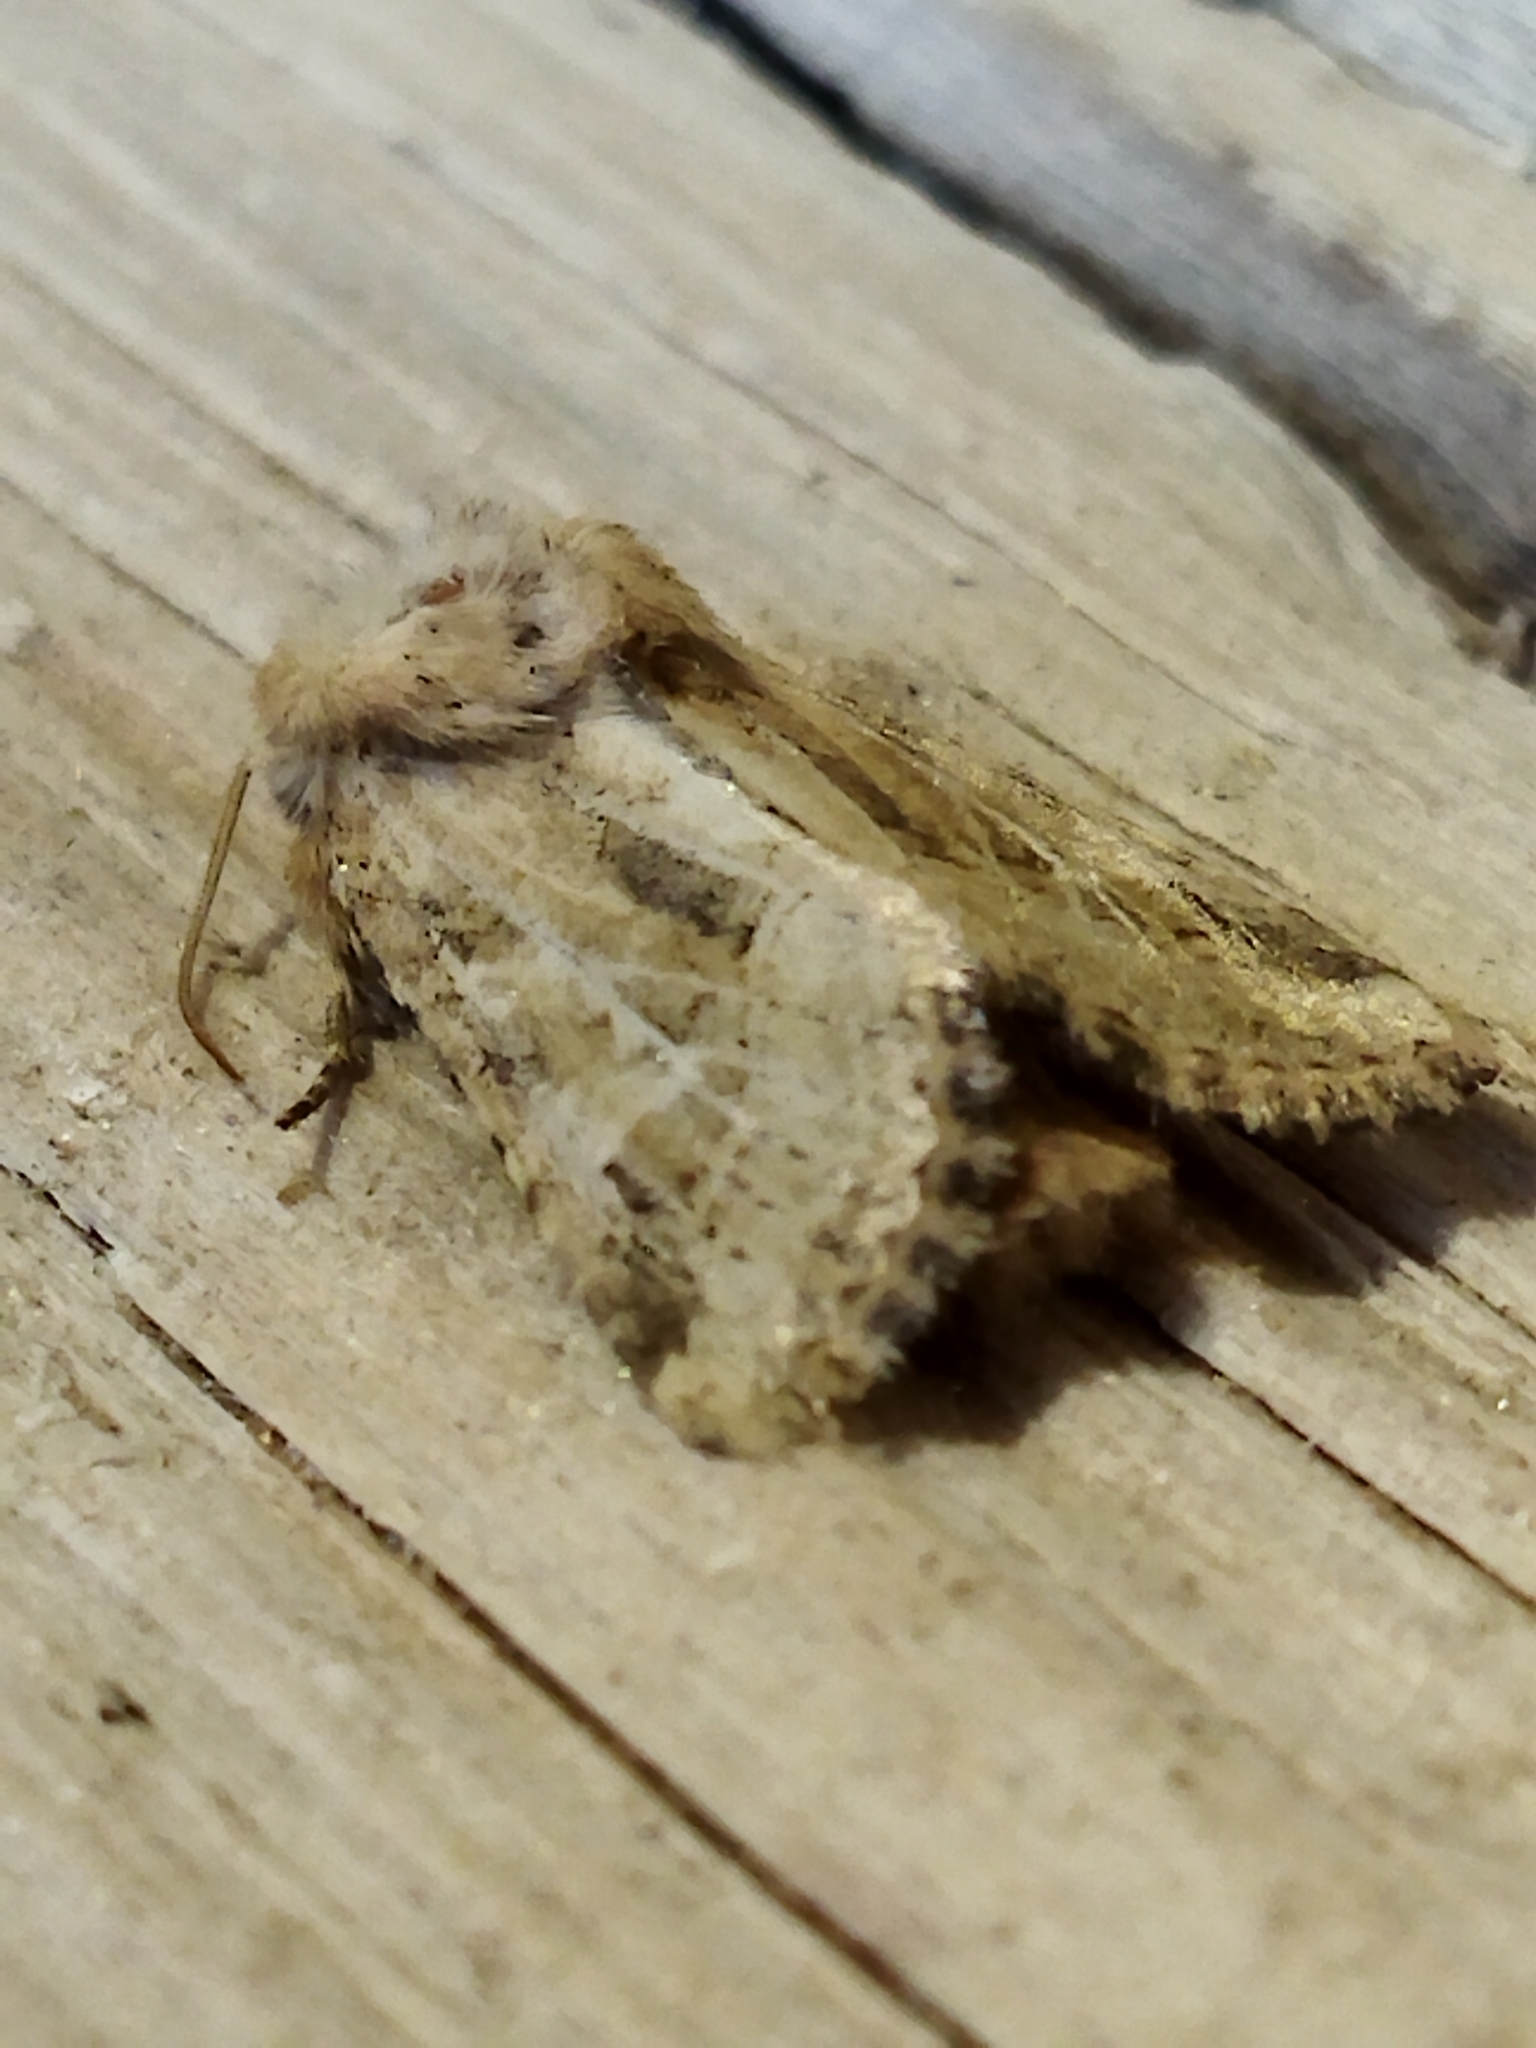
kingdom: Animalia
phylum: Arthropoda
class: Insecta
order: Lepidoptera
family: Noctuidae
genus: Luperina
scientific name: Luperina dumerilii
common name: Dumeril's rustic
